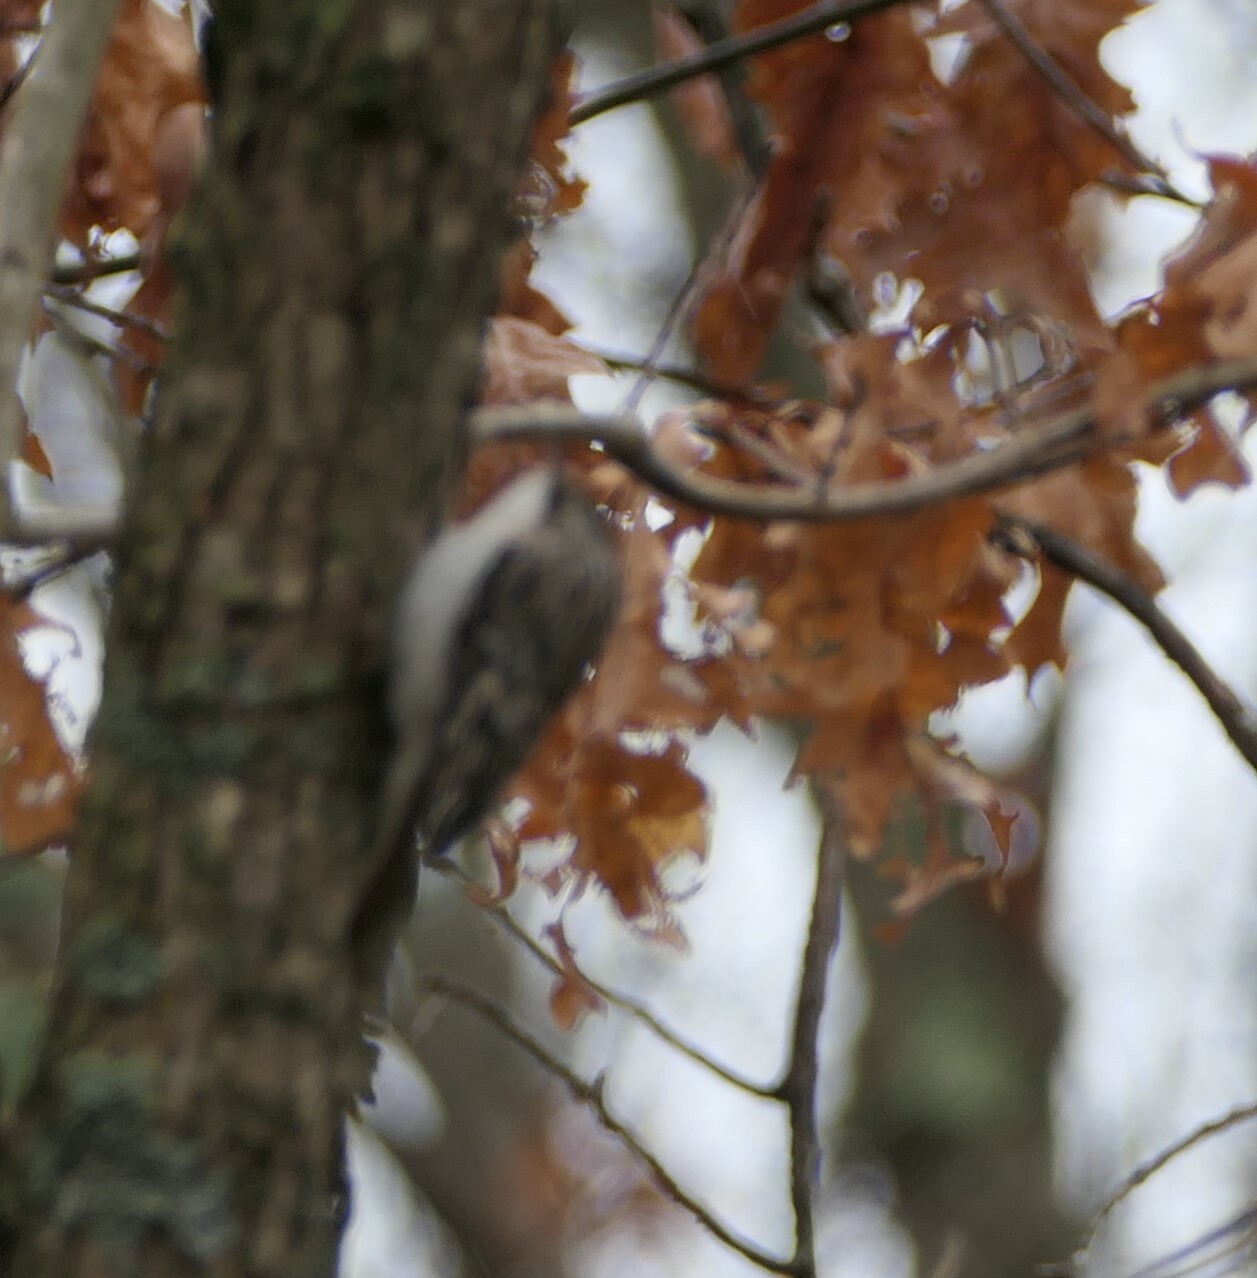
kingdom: Animalia
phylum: Chordata
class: Aves
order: Passeriformes
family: Certhiidae
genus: Certhia
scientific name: Certhia americana
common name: Brown creeper
